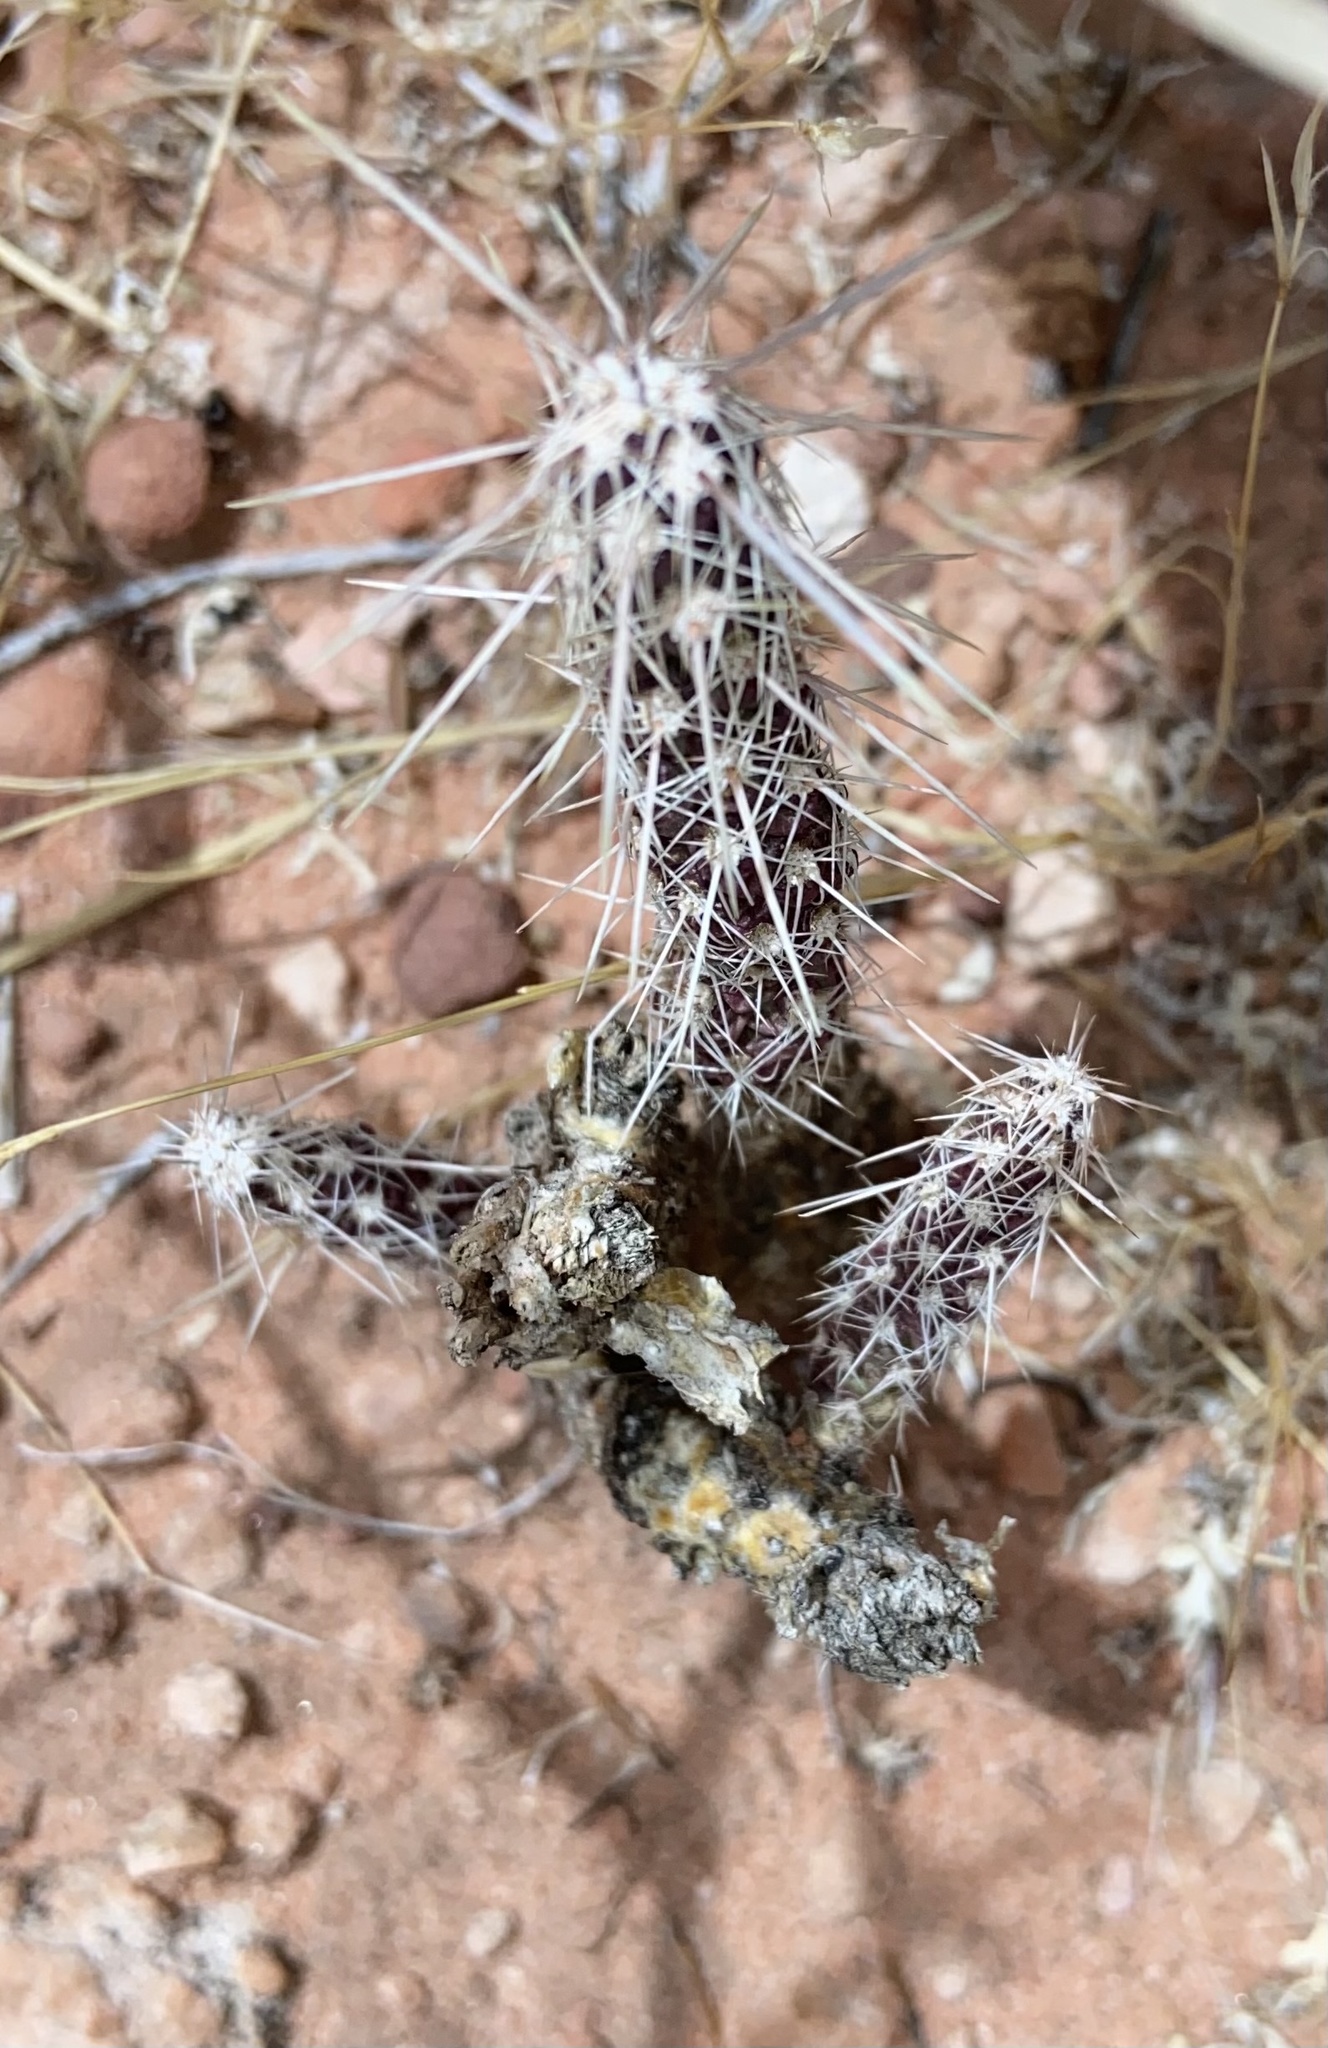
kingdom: Plantae
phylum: Tracheophyta
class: Magnoliopsida
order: Caryophyllales
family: Cactaceae
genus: Cylindropuntia
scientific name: Cylindropuntia ramosissima
